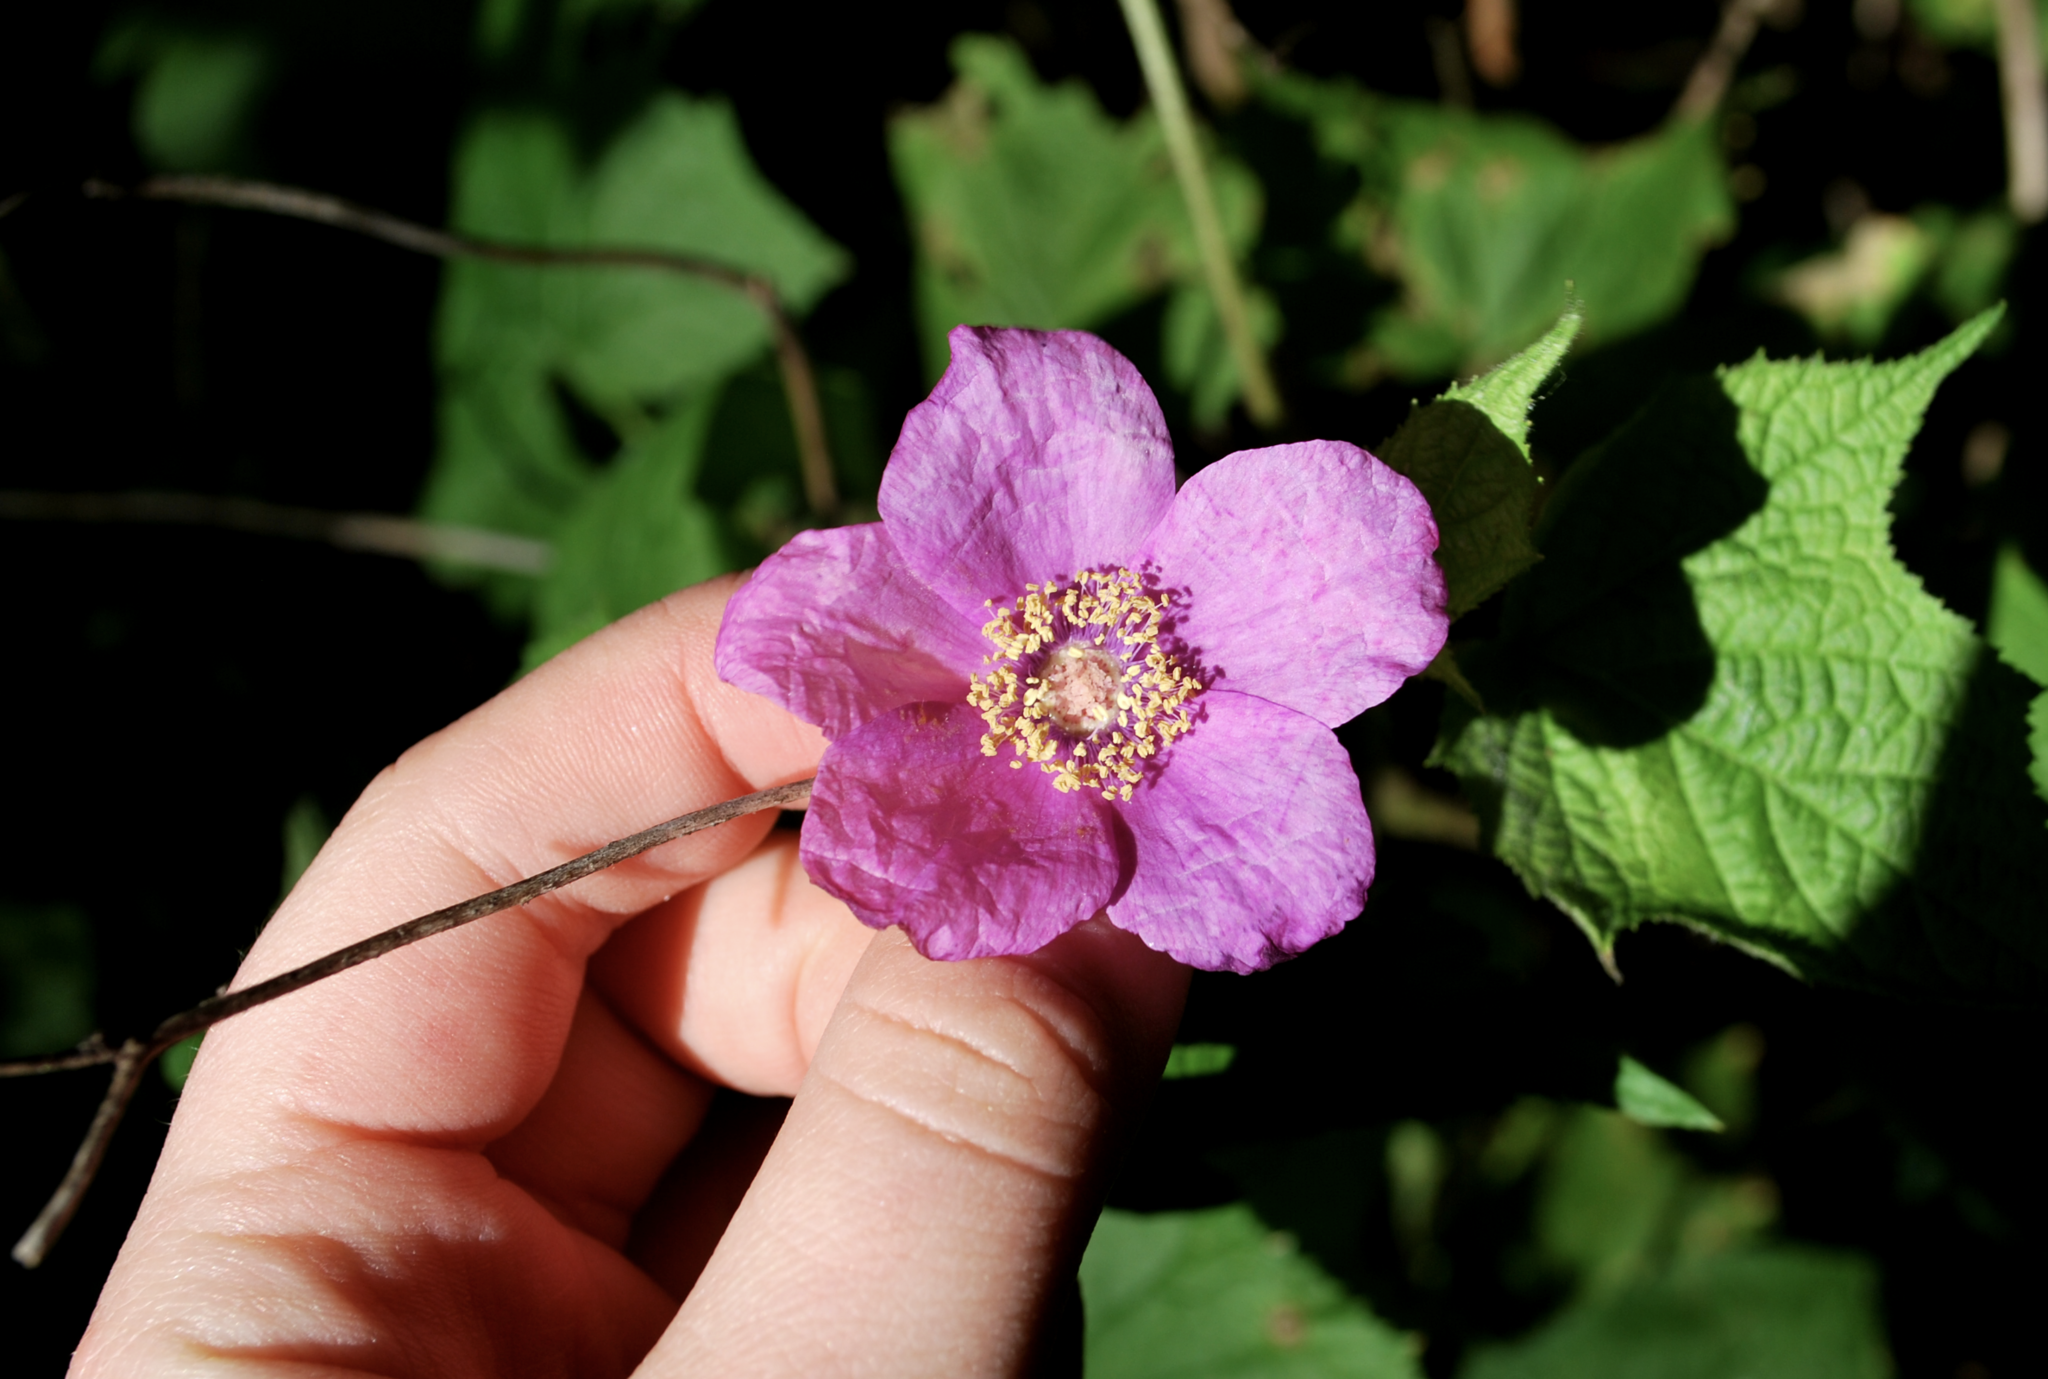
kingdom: Plantae
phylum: Tracheophyta
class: Magnoliopsida
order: Rosales
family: Rosaceae
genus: Rubus
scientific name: Rubus odoratus
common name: Purple-flowered raspberry
